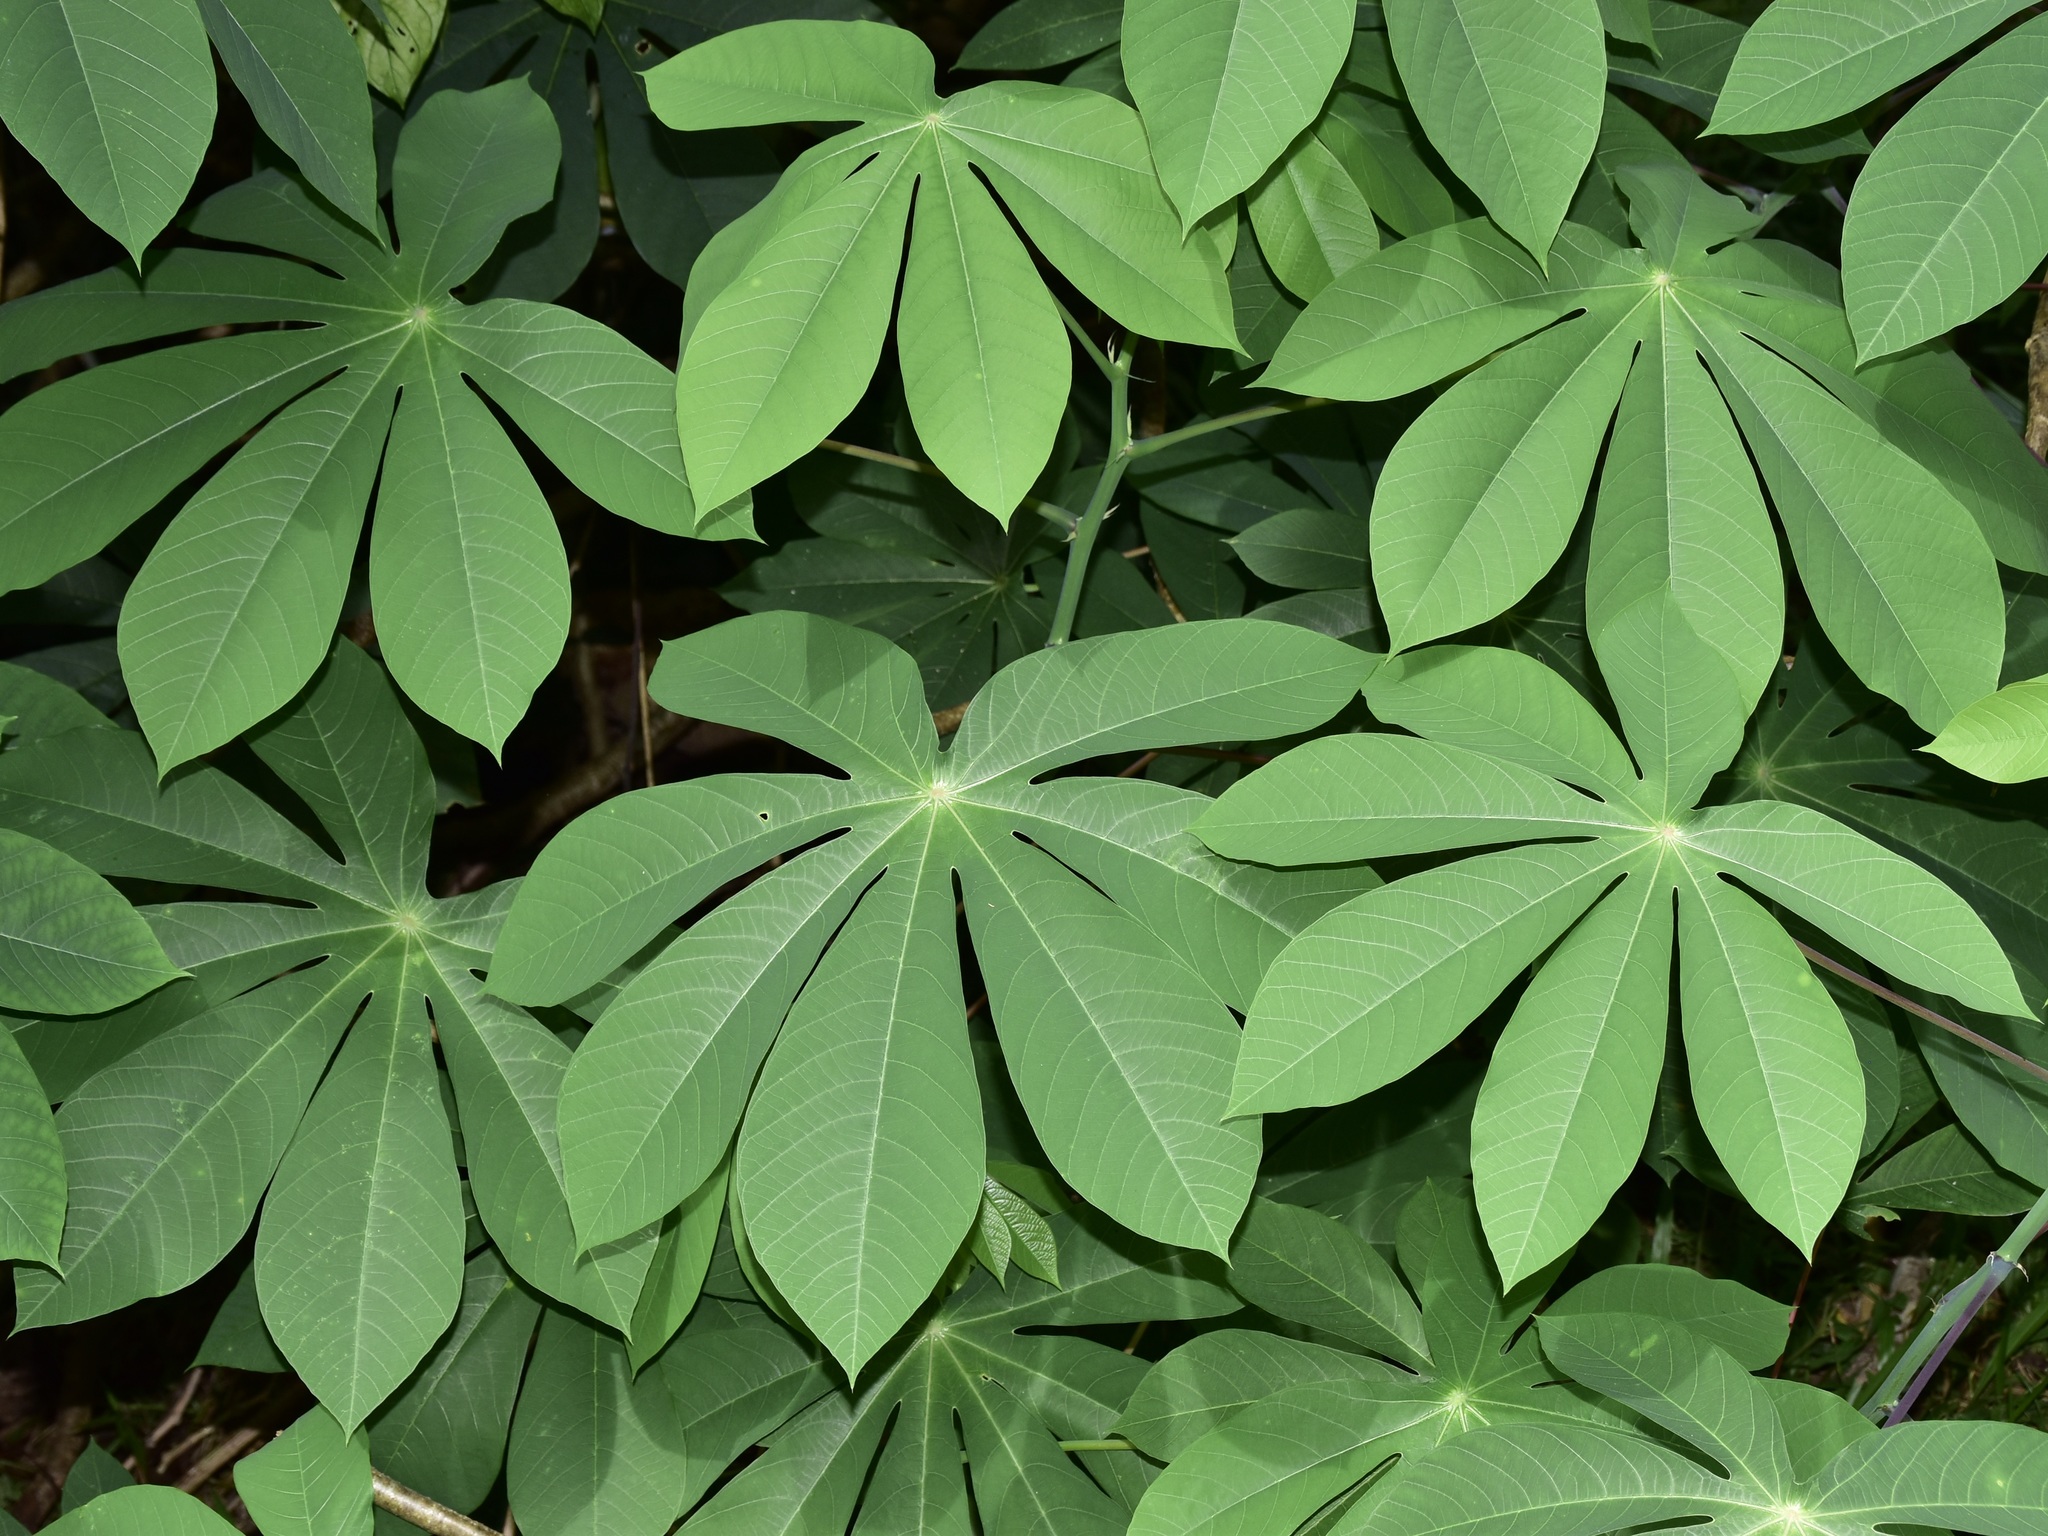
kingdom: Plantae
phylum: Tracheophyta
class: Magnoliopsida
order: Malpighiales
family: Euphorbiaceae
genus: Manihot
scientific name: Manihot carthagenensis
